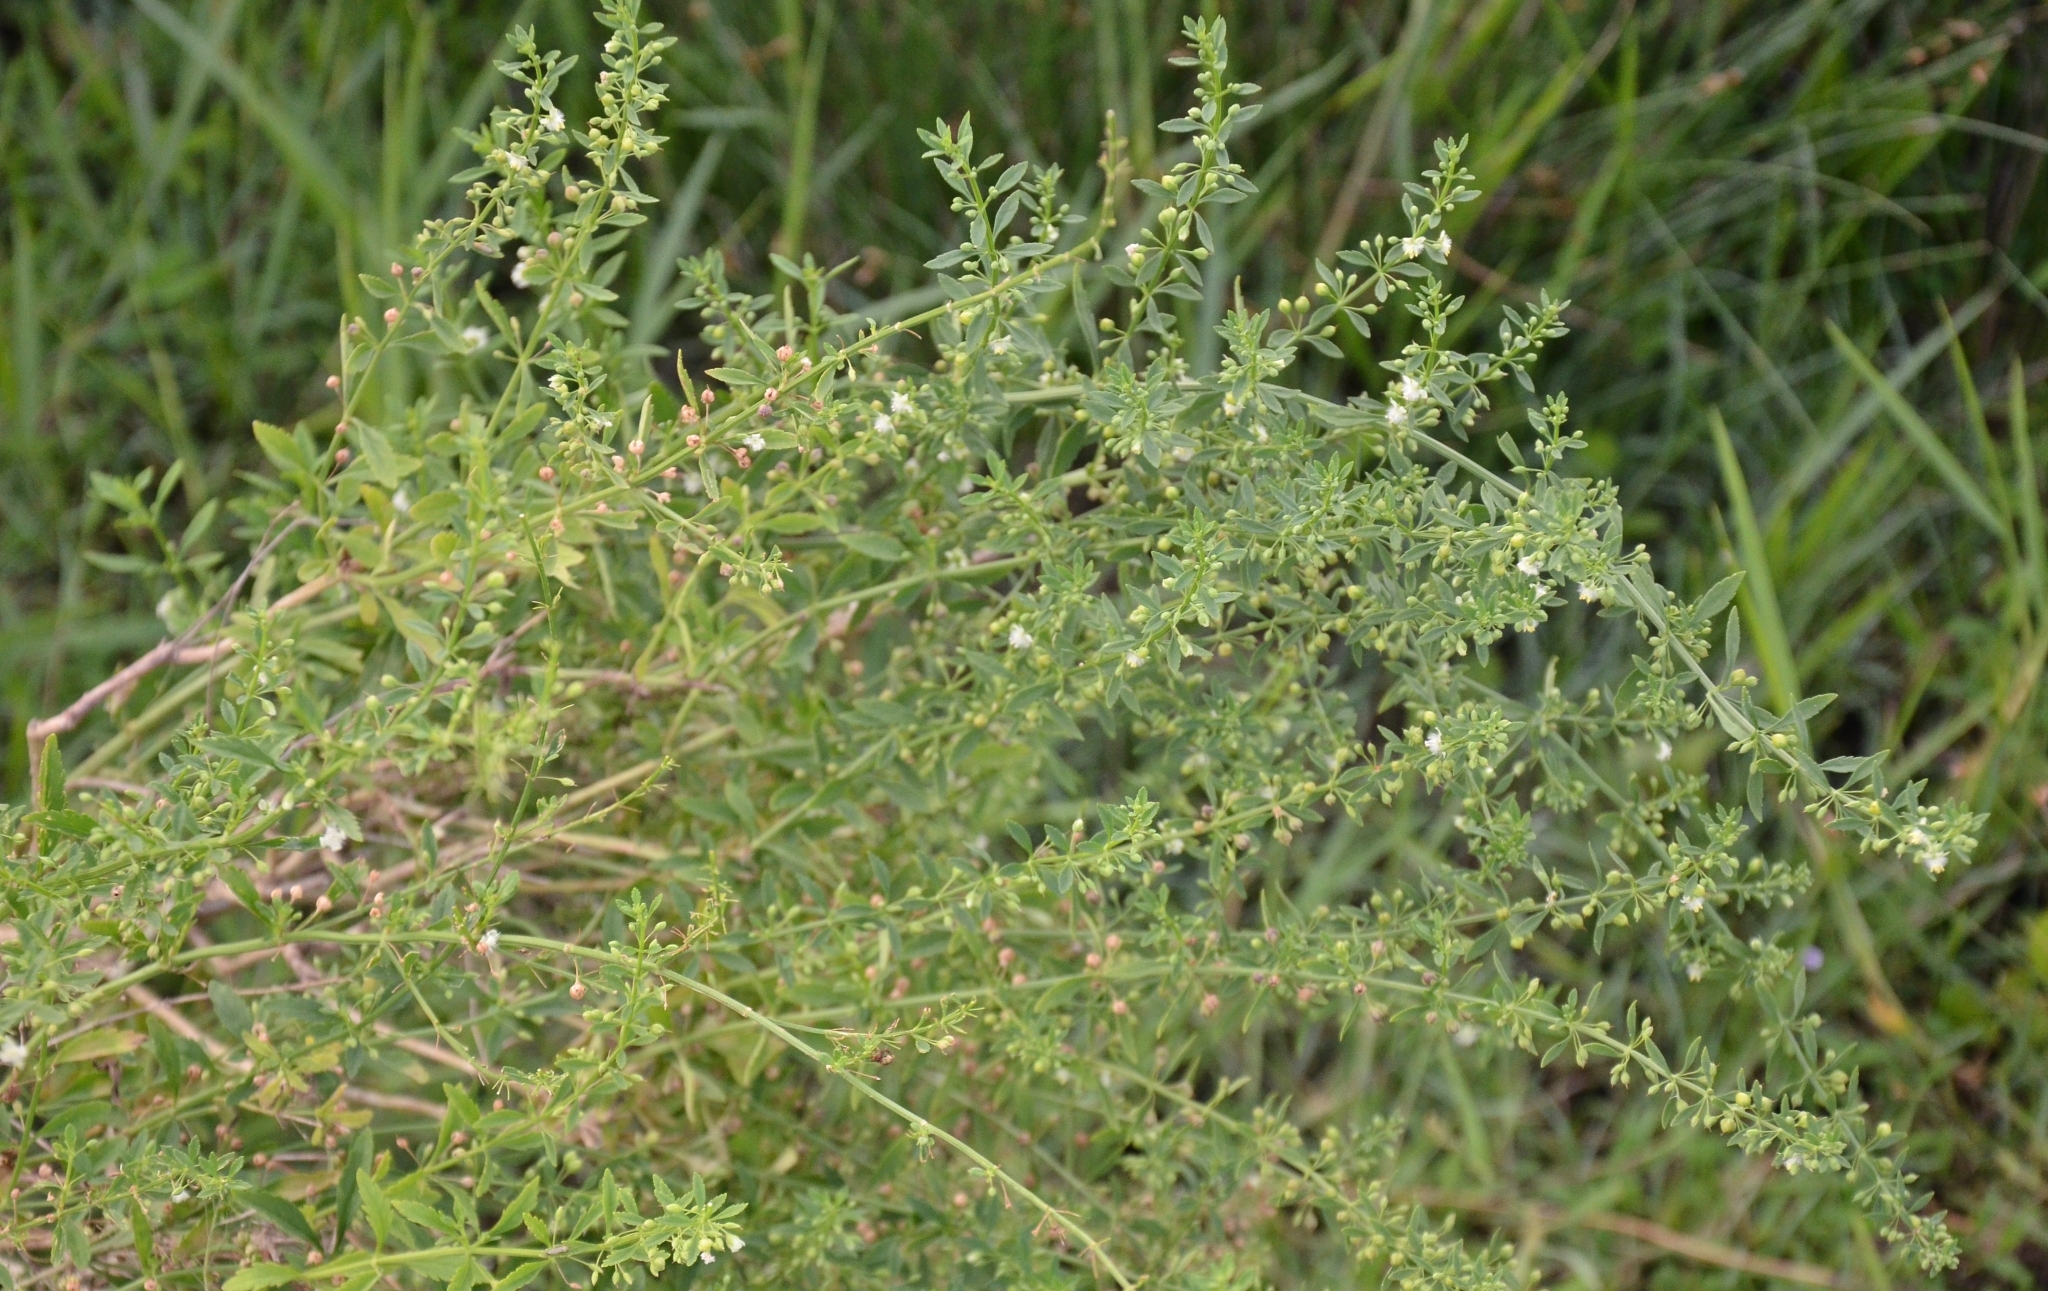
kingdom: Plantae
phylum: Tracheophyta
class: Magnoliopsida
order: Lamiales
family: Plantaginaceae
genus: Scoparia
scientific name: Scoparia dulcis
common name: Scoparia-weed
